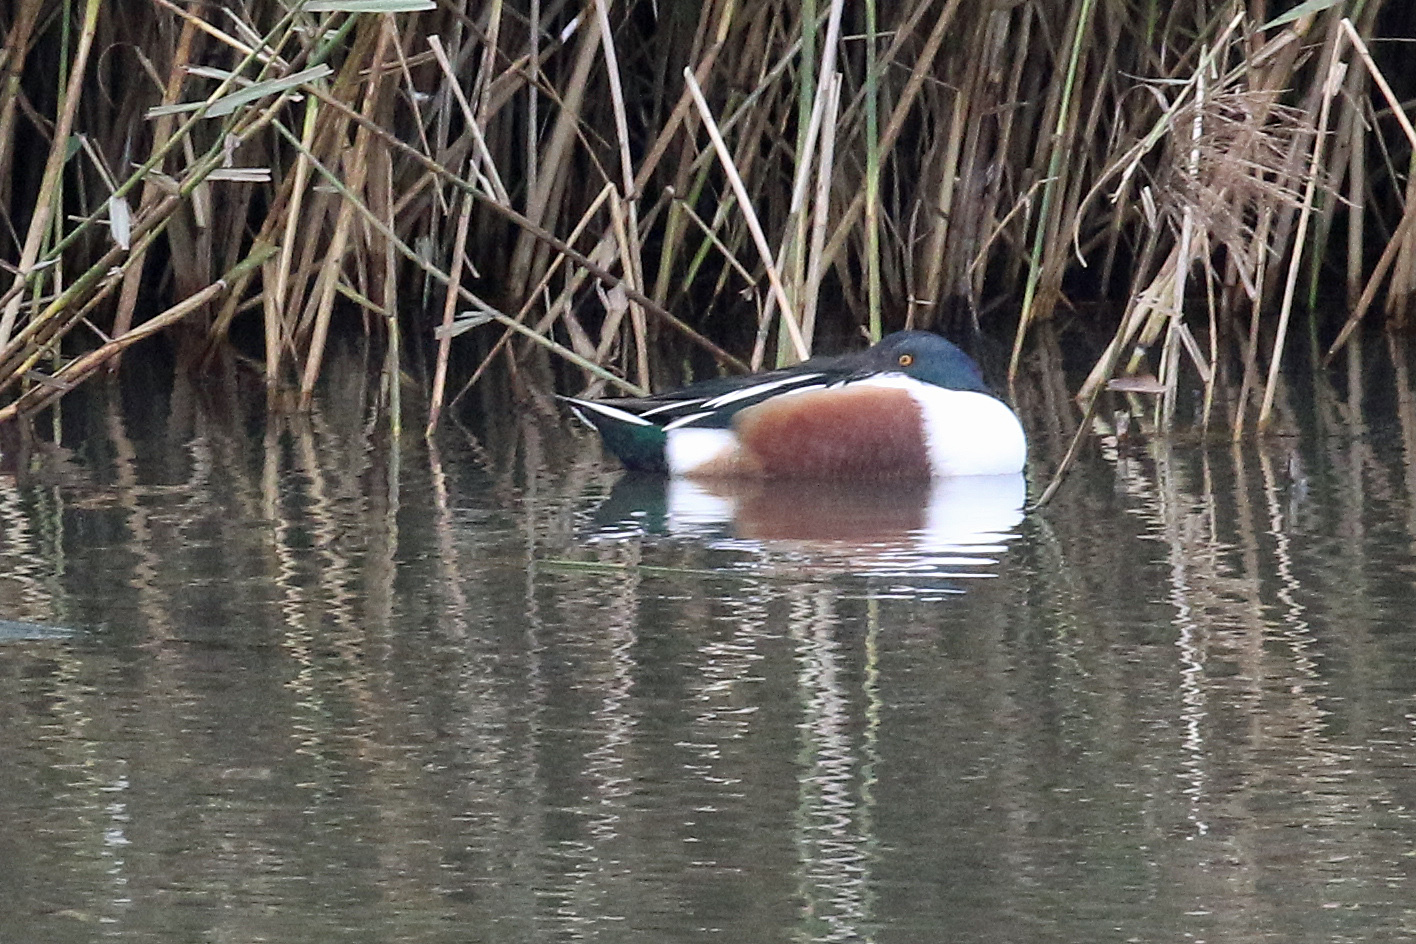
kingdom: Animalia
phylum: Chordata
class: Aves
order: Anseriformes
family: Anatidae
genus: Spatula
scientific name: Spatula clypeata
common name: Northern shoveler
